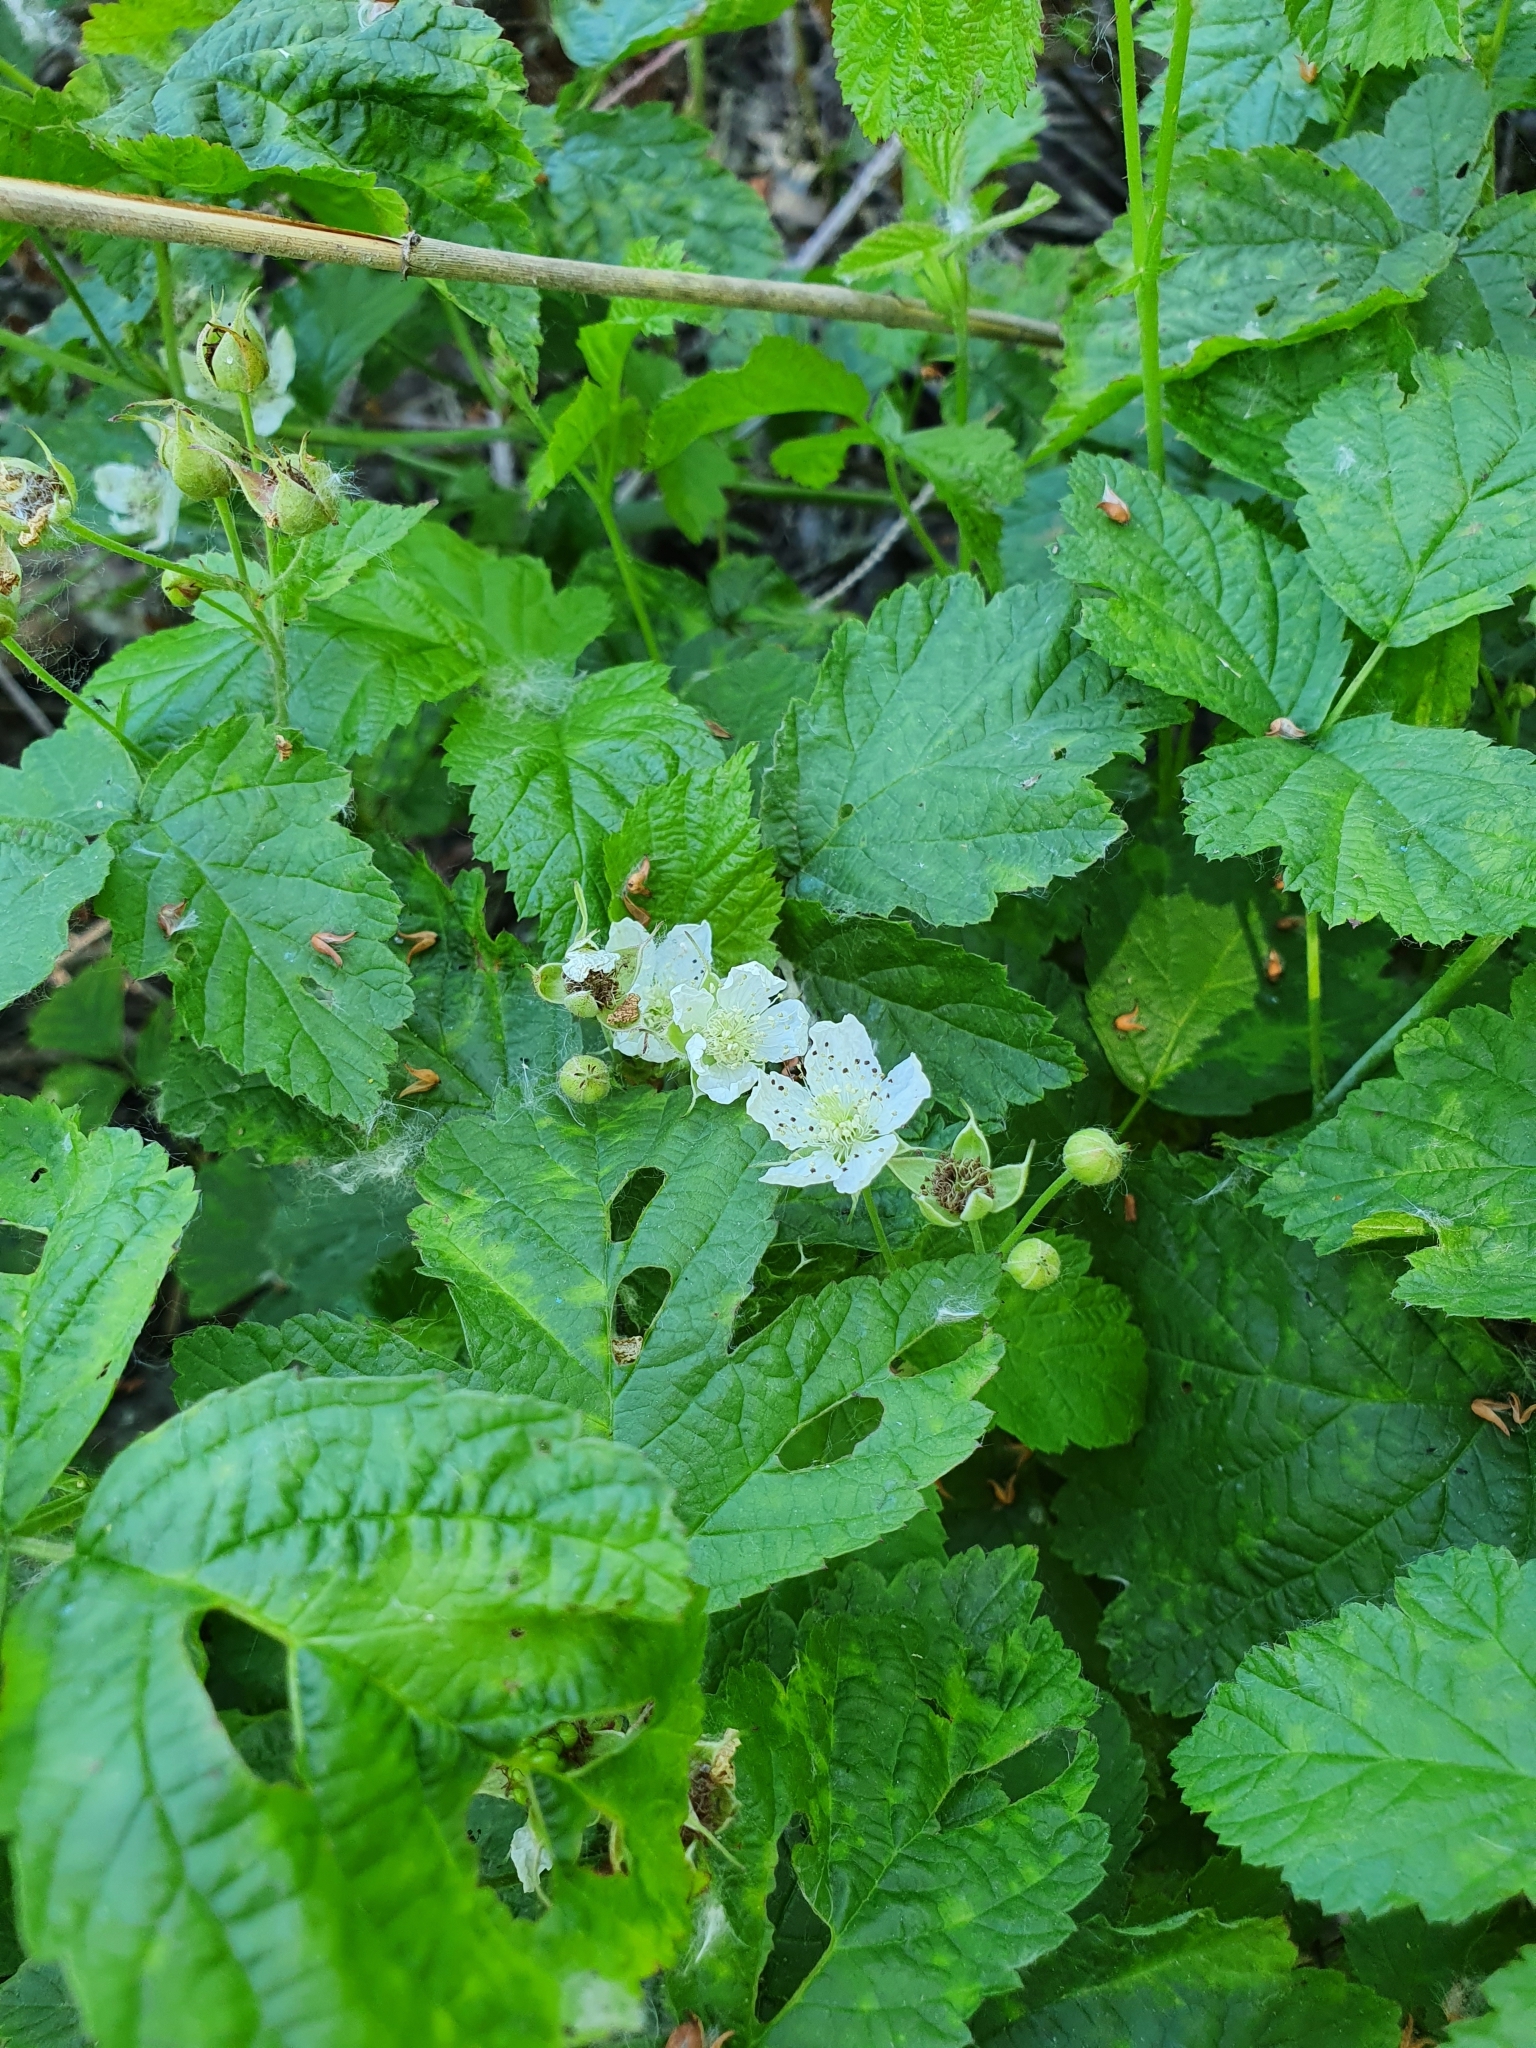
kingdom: Plantae
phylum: Tracheophyta
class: Magnoliopsida
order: Rosales
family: Rosaceae
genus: Rubus
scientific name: Rubus caesius
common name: Dewberry
